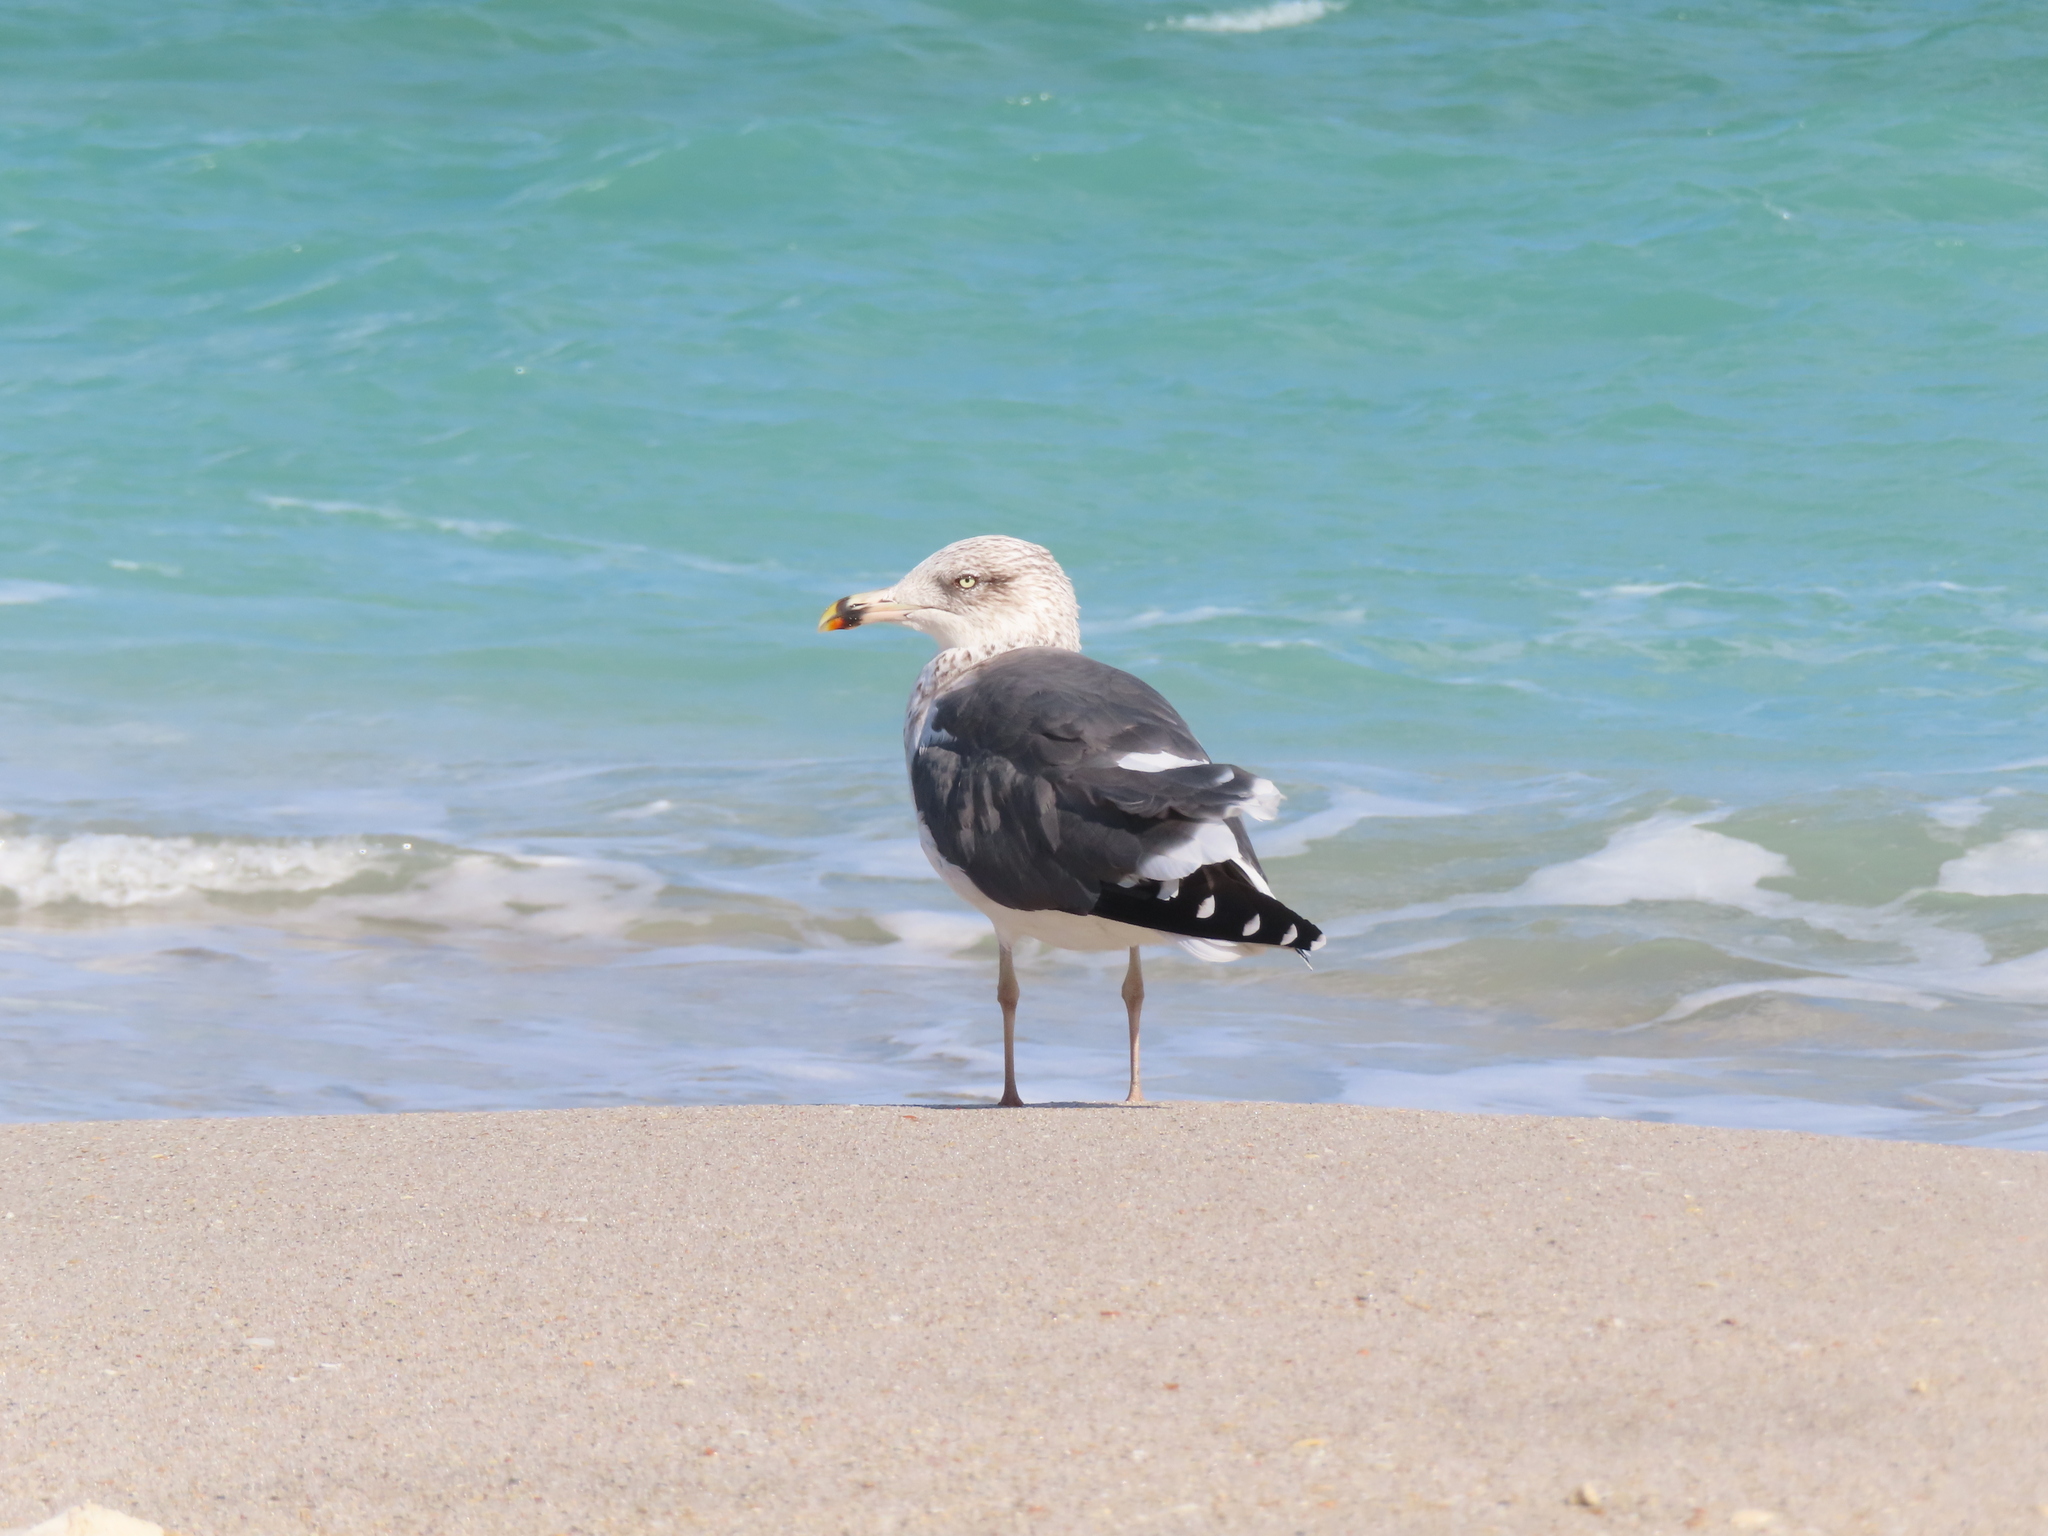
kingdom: Animalia
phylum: Chordata
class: Aves
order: Charadriiformes
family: Laridae
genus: Larus
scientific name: Larus fuscus
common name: Lesser black-backed gull
